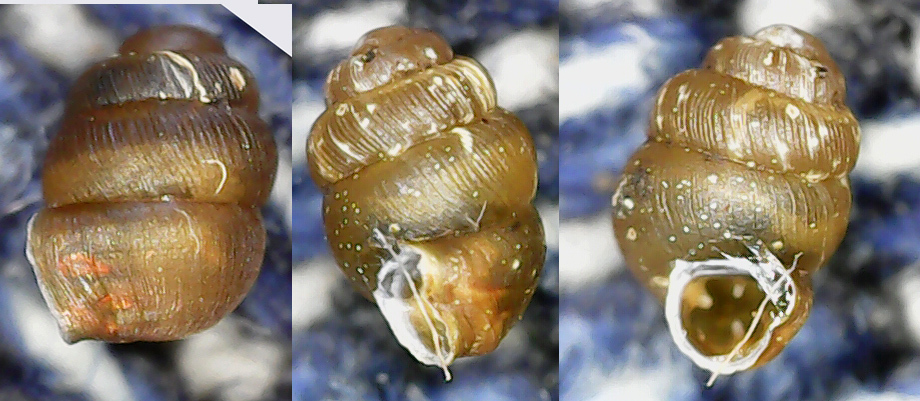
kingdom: Animalia
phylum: Mollusca
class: Gastropoda
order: Stylommatophora
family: Vertiginidae
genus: Vertigo
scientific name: Vertigo substriata
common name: Striated whorl snail
